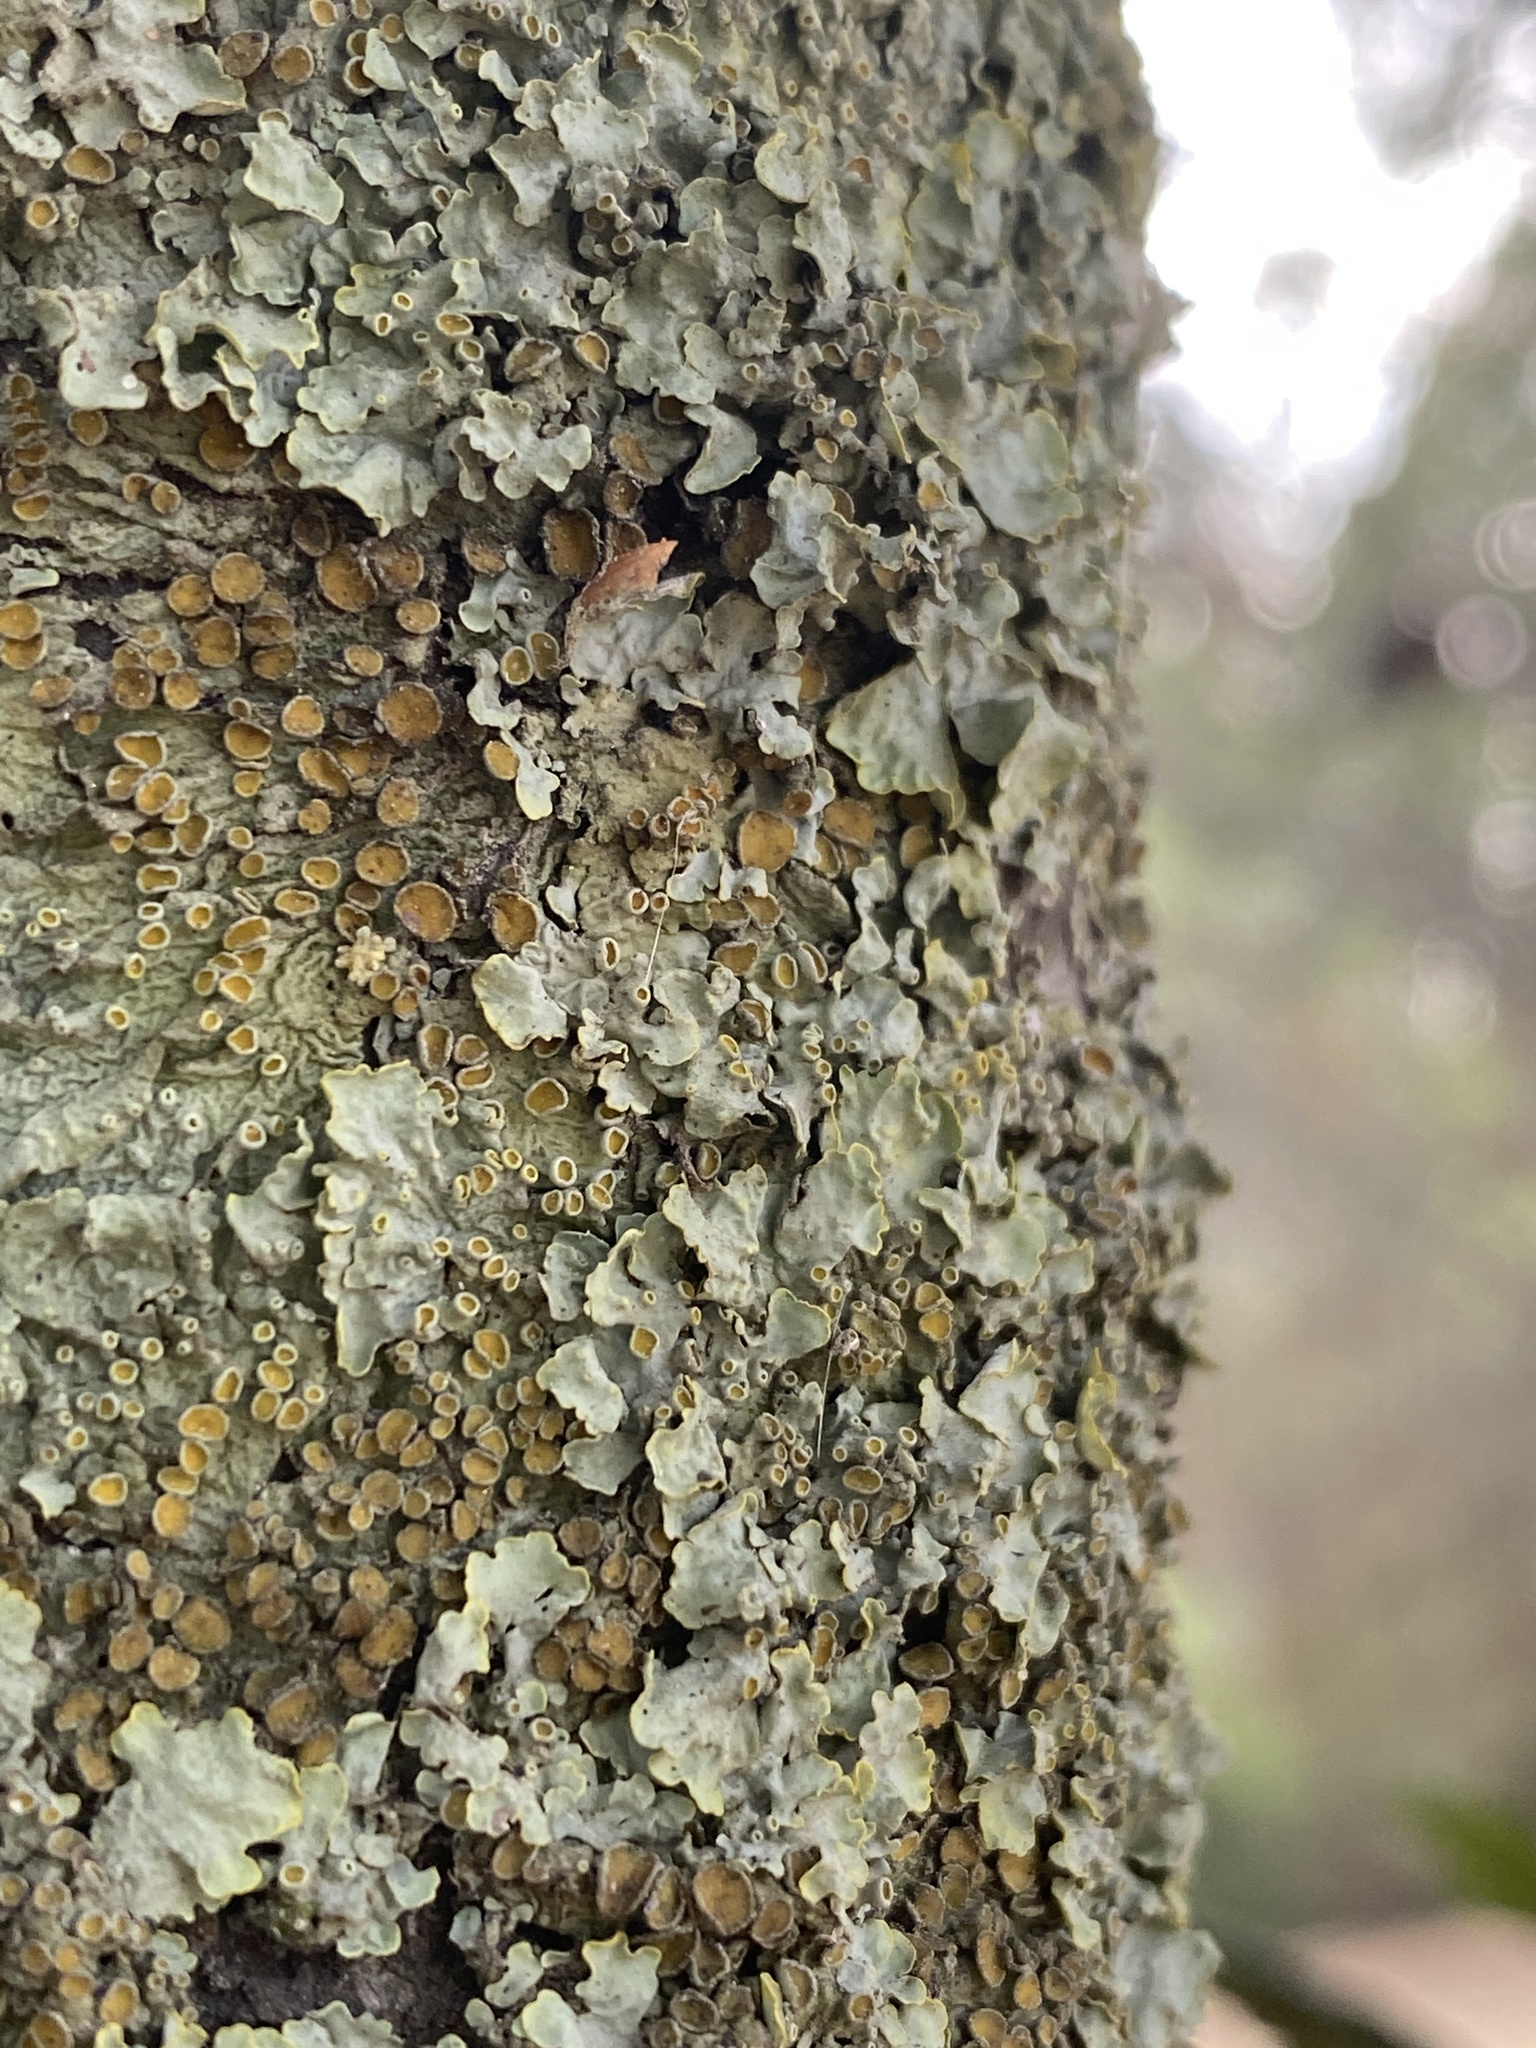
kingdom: Fungi
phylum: Ascomycota
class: Lecanoromycetes
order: Teloschistales
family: Teloschistaceae
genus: Xanthoria
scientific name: Xanthoria parietina
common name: Common orange lichen
